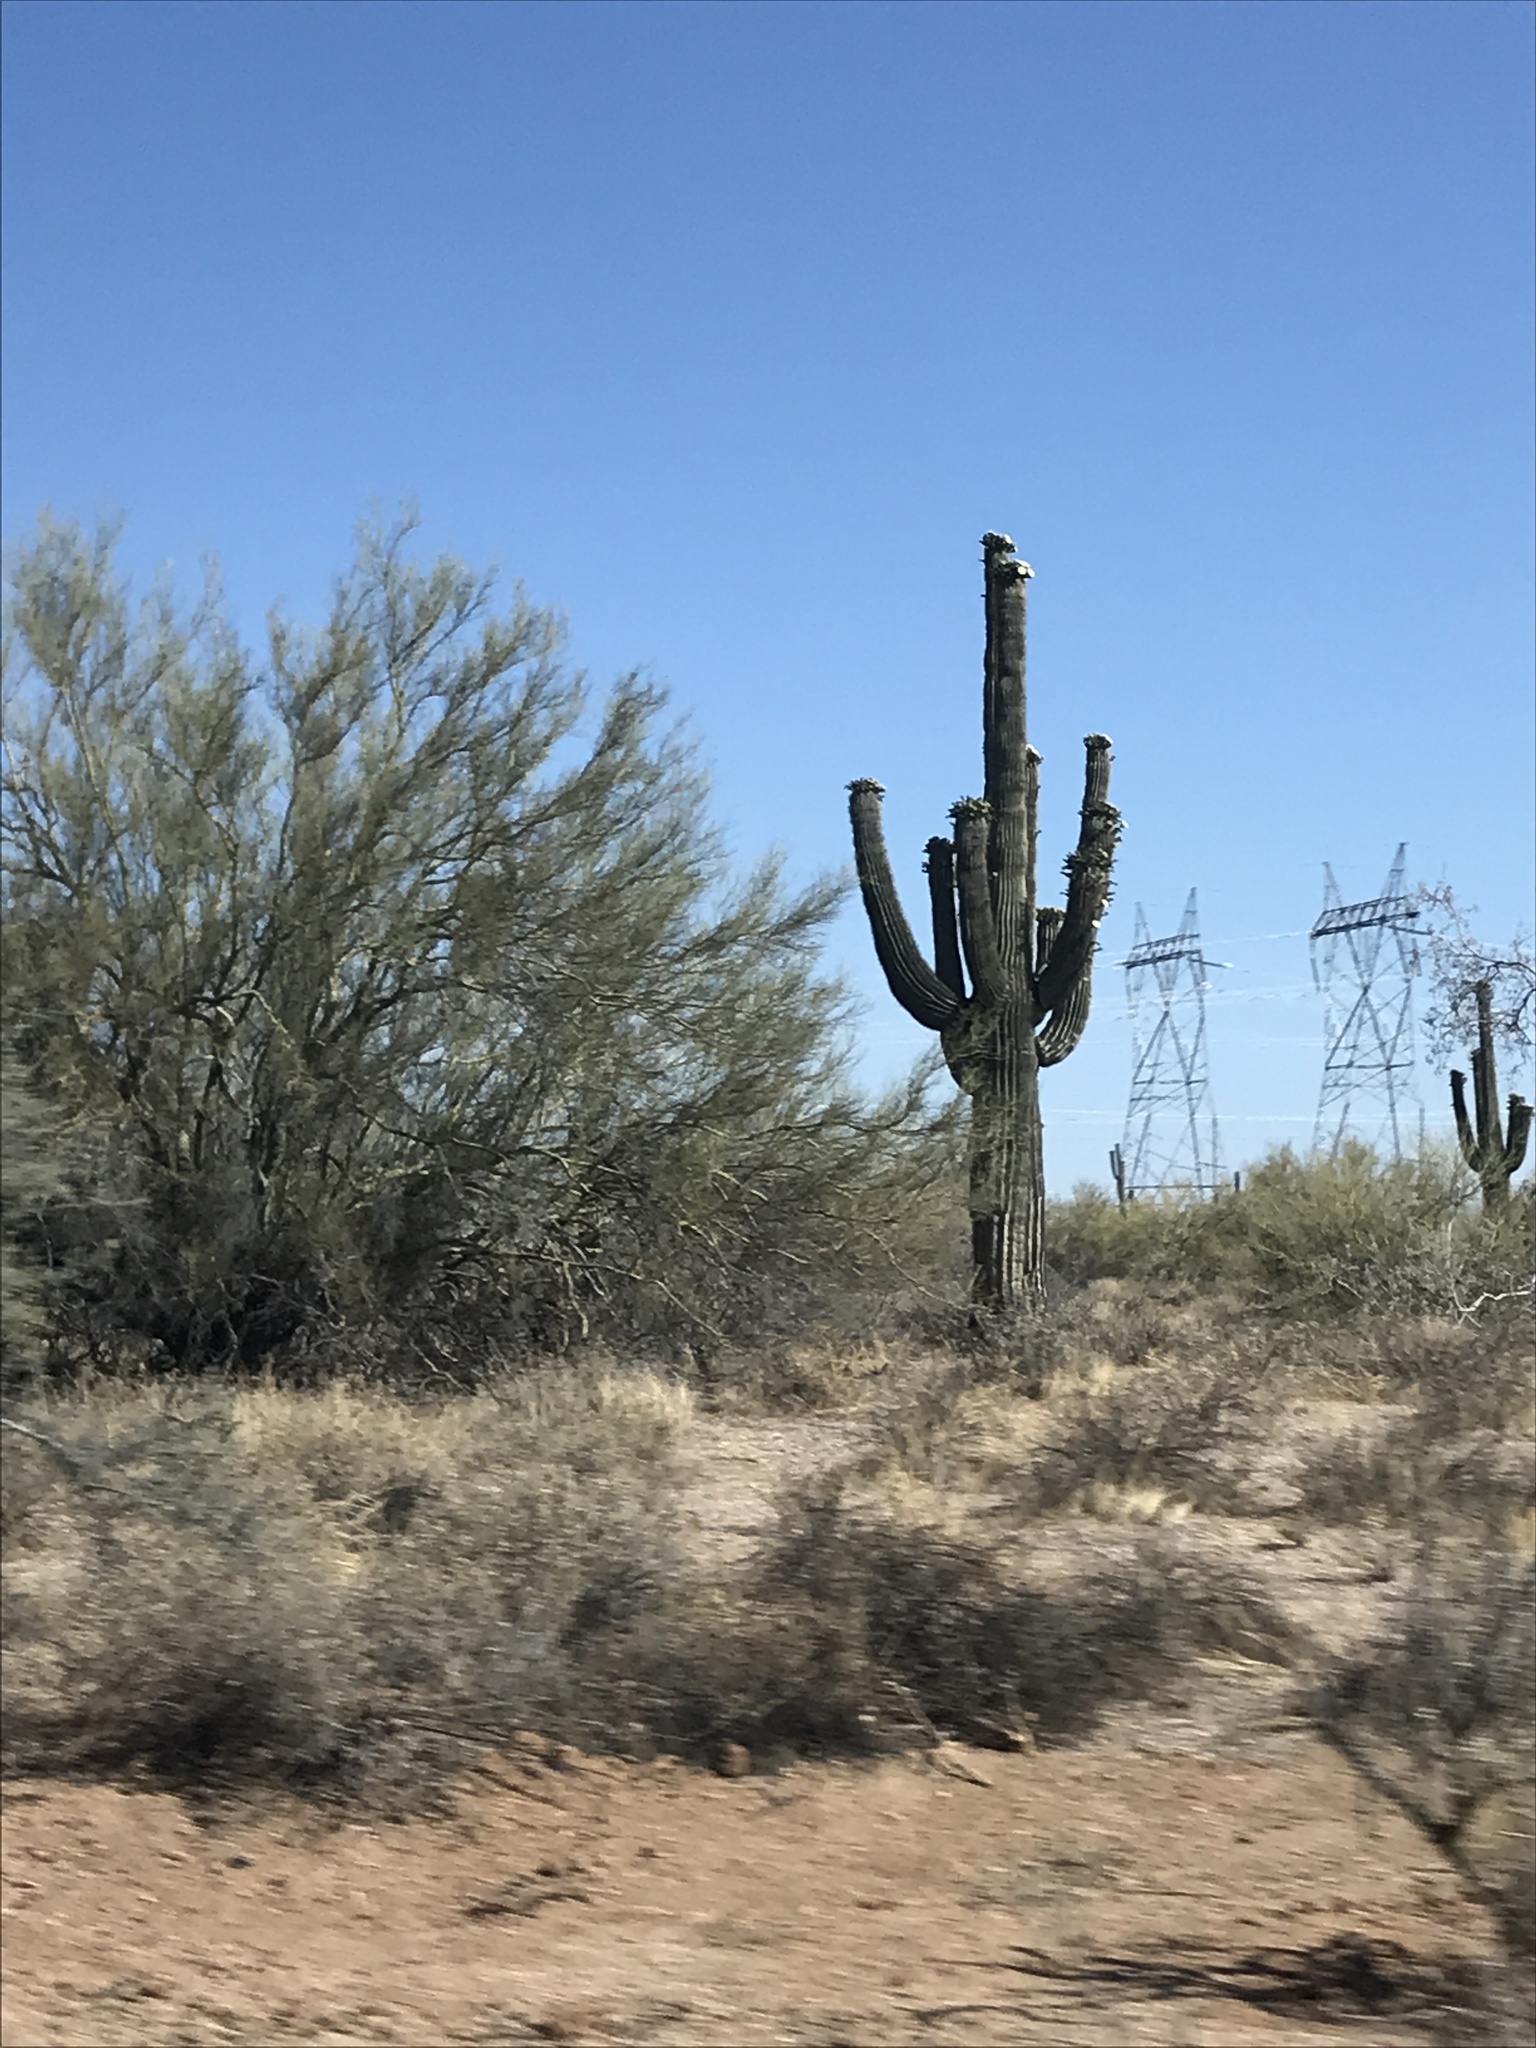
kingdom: Plantae
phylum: Tracheophyta
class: Magnoliopsida
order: Caryophyllales
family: Cactaceae
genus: Carnegiea
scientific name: Carnegiea gigantea
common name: Saguaro
